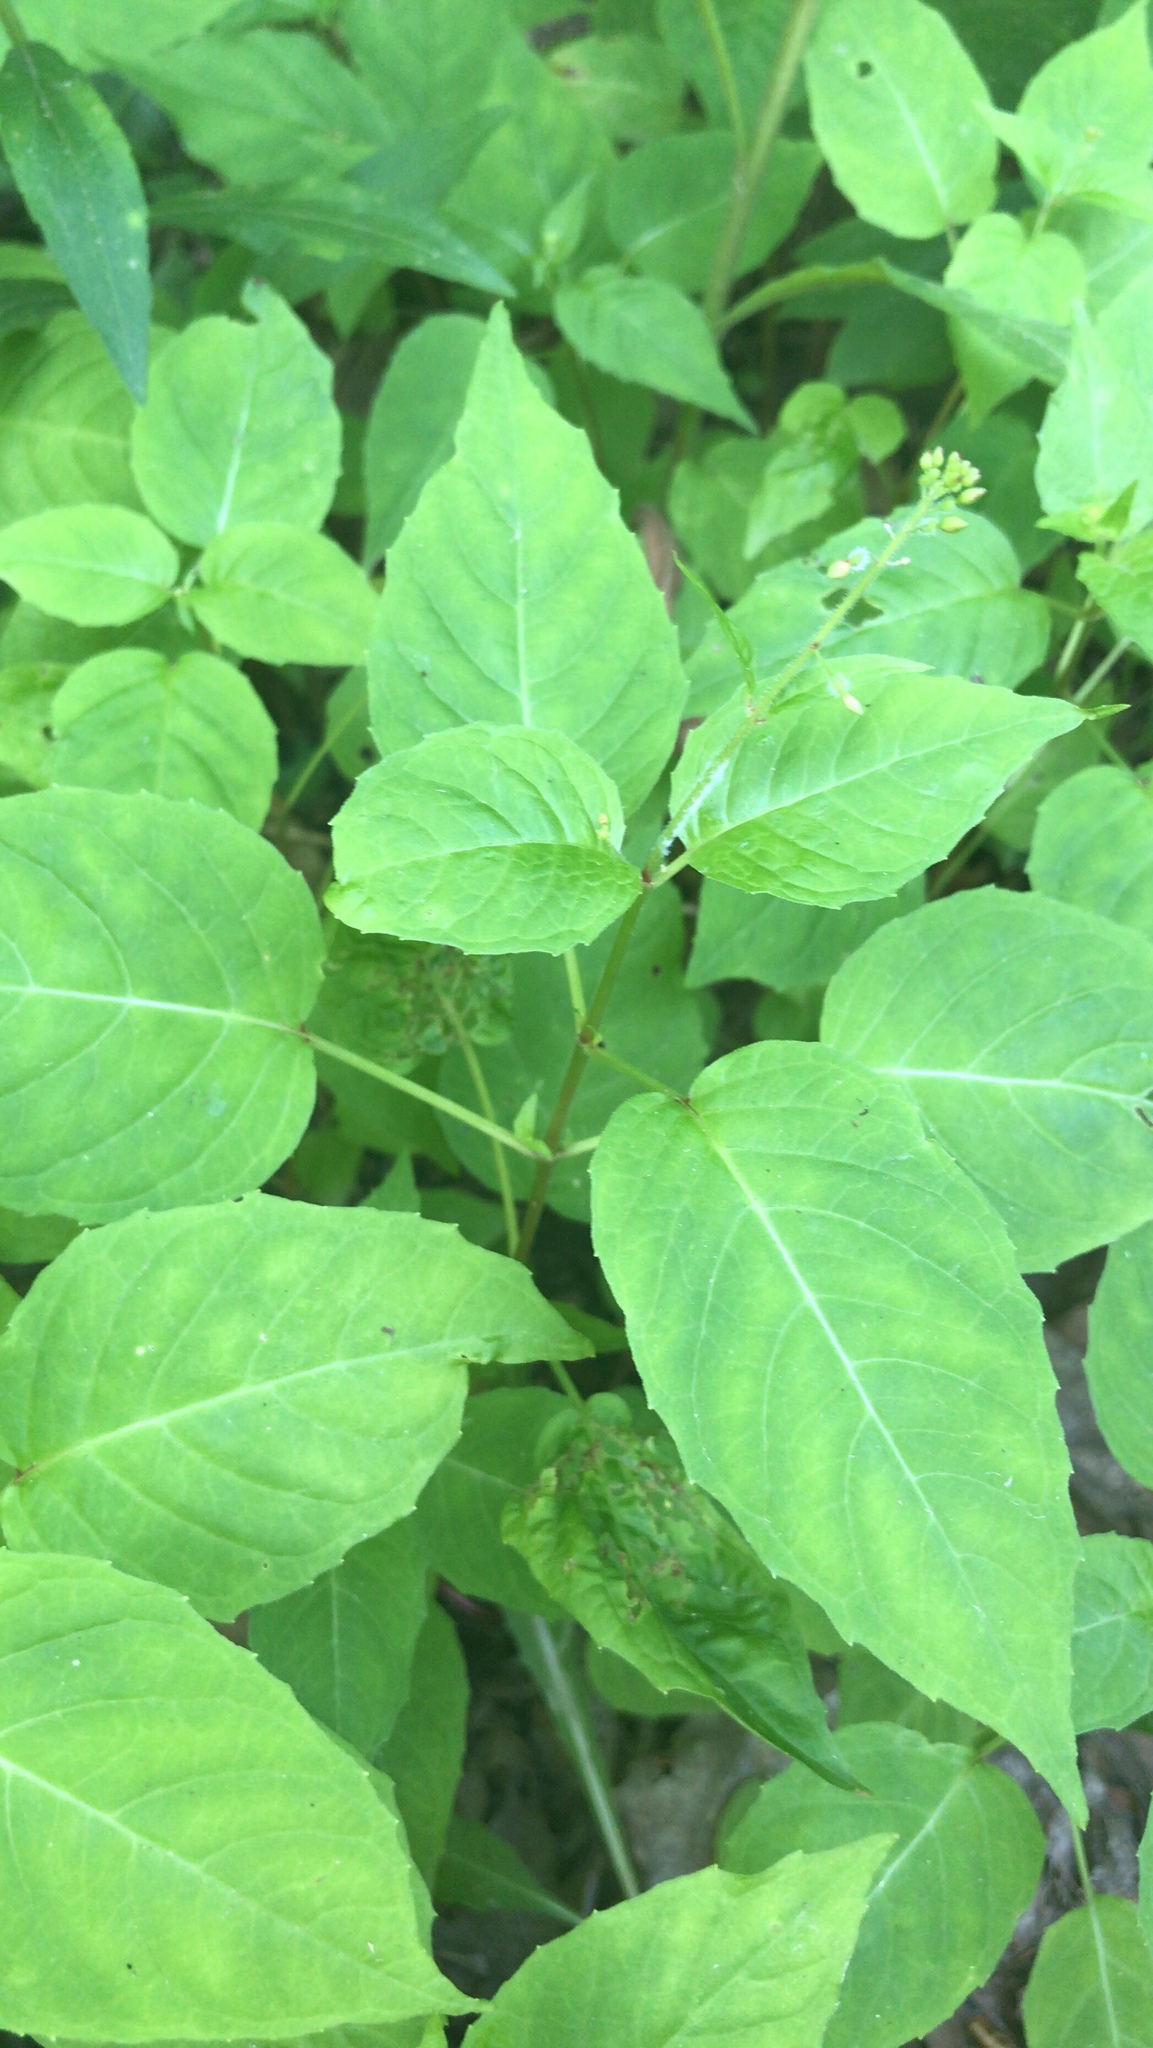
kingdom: Plantae
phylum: Tracheophyta
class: Magnoliopsida
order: Myrtales
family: Onagraceae
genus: Circaea
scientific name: Circaea canadensis
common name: Broad-leaved enchanter's nightshade
